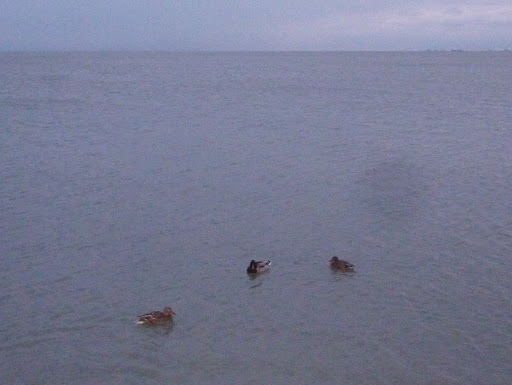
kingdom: Animalia
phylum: Chordata
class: Aves
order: Anseriformes
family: Anatidae
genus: Anas
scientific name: Anas platyrhynchos
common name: Mallard
